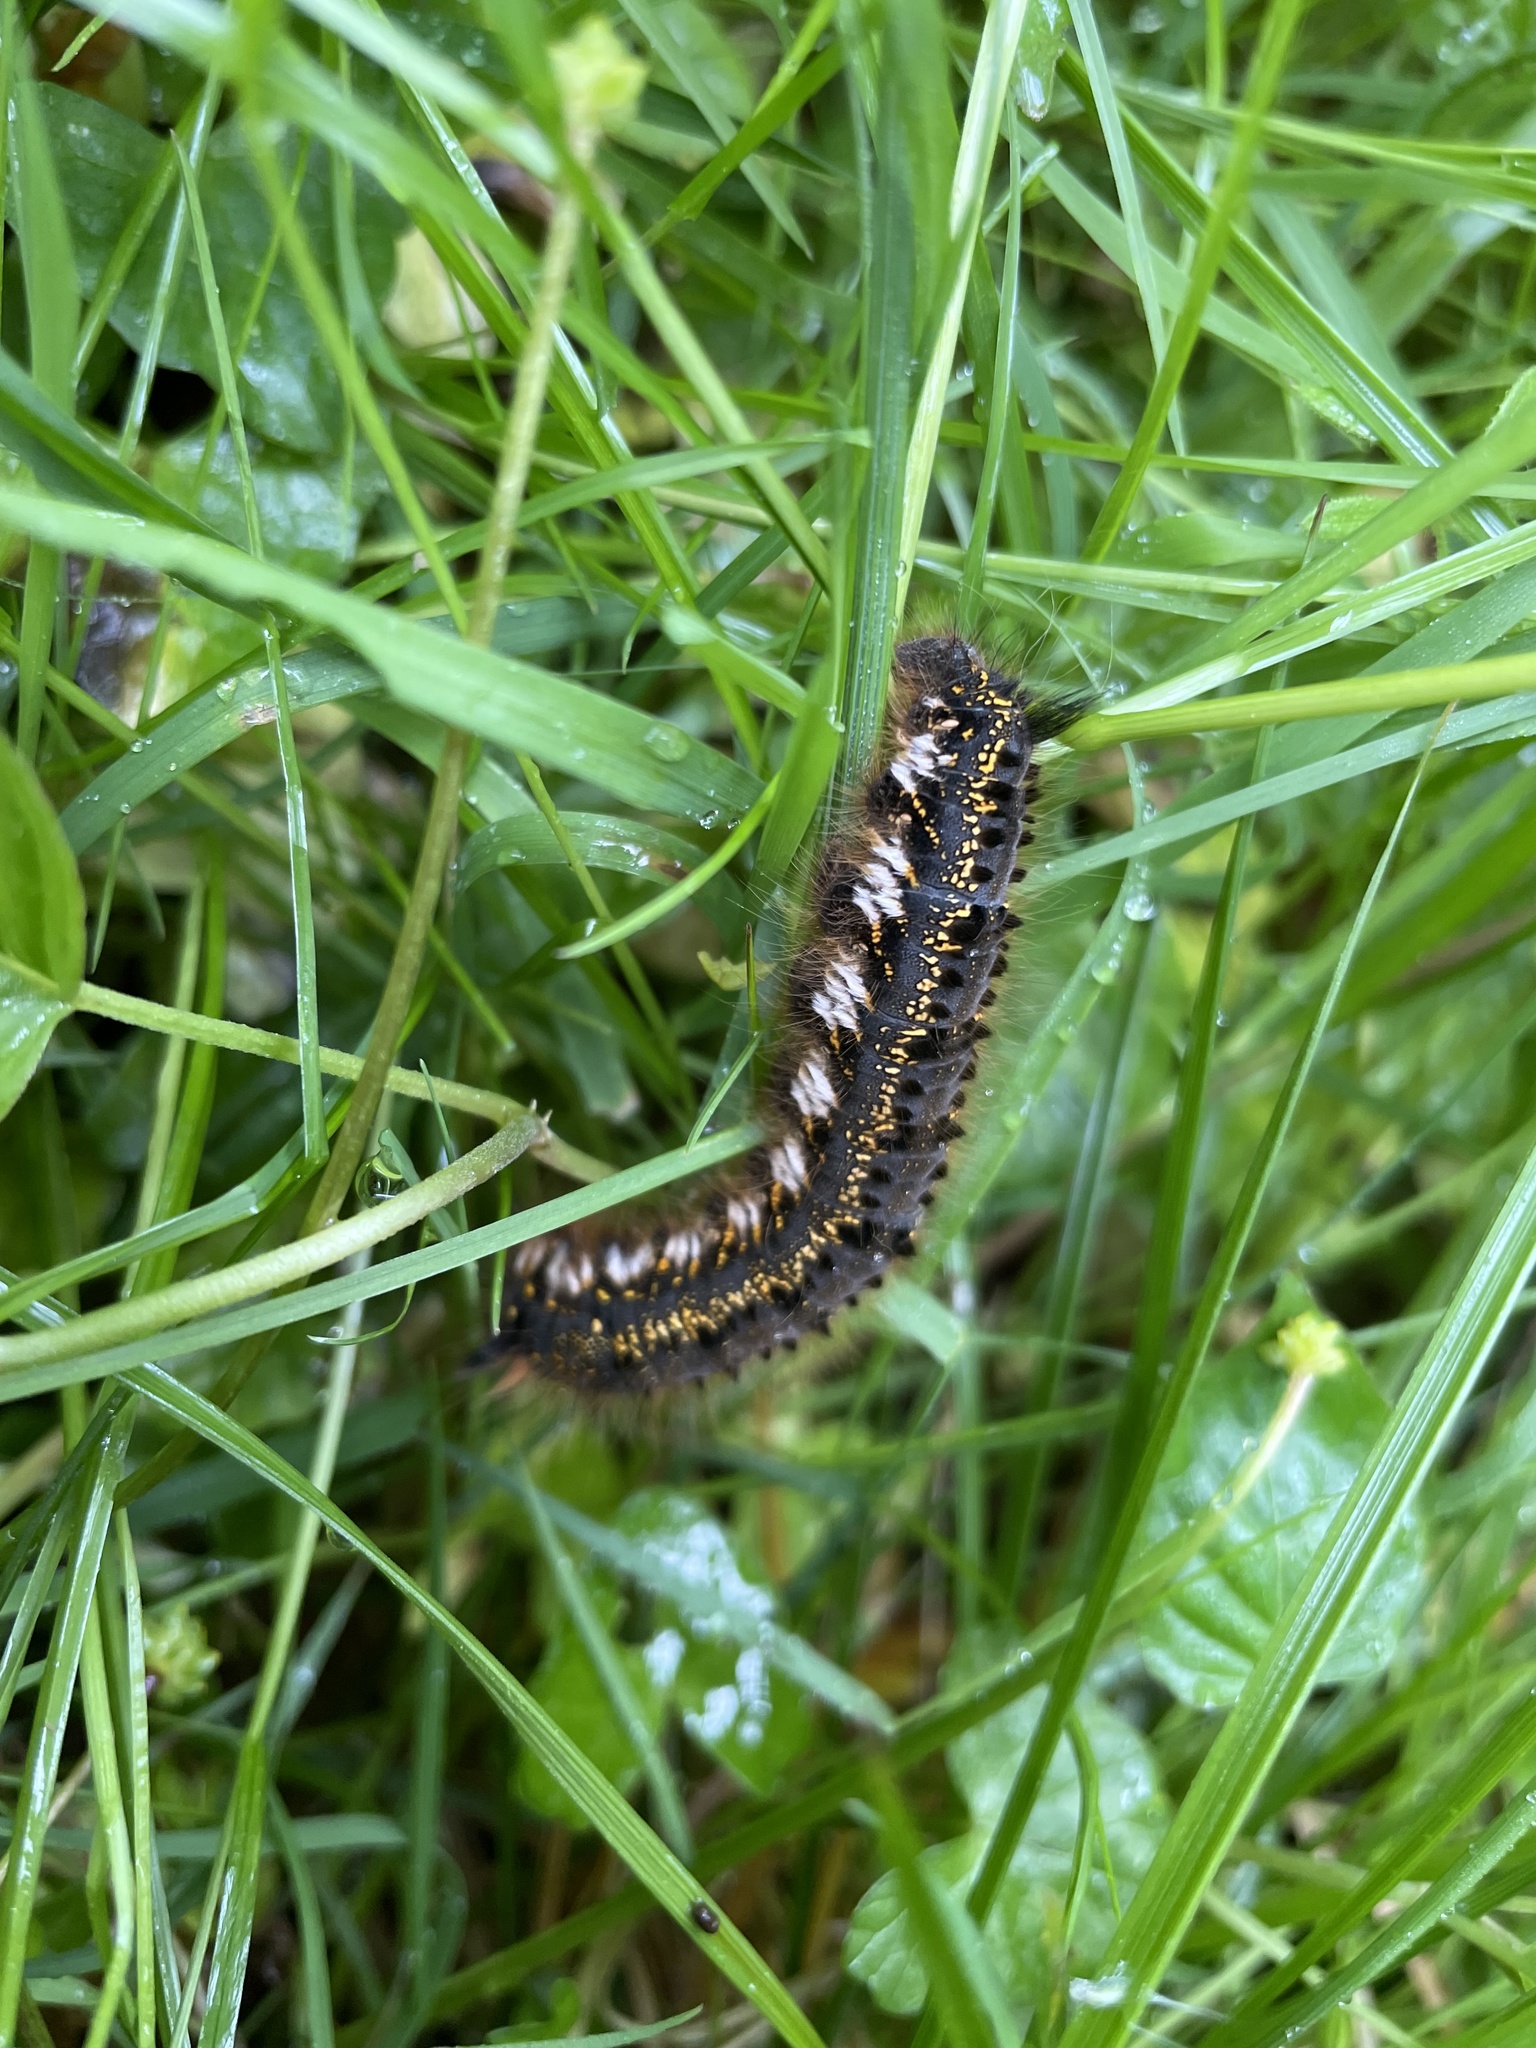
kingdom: Animalia
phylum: Arthropoda
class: Insecta
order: Lepidoptera
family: Lasiocampidae
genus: Euthrix
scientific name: Euthrix potatoria
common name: Drinker
